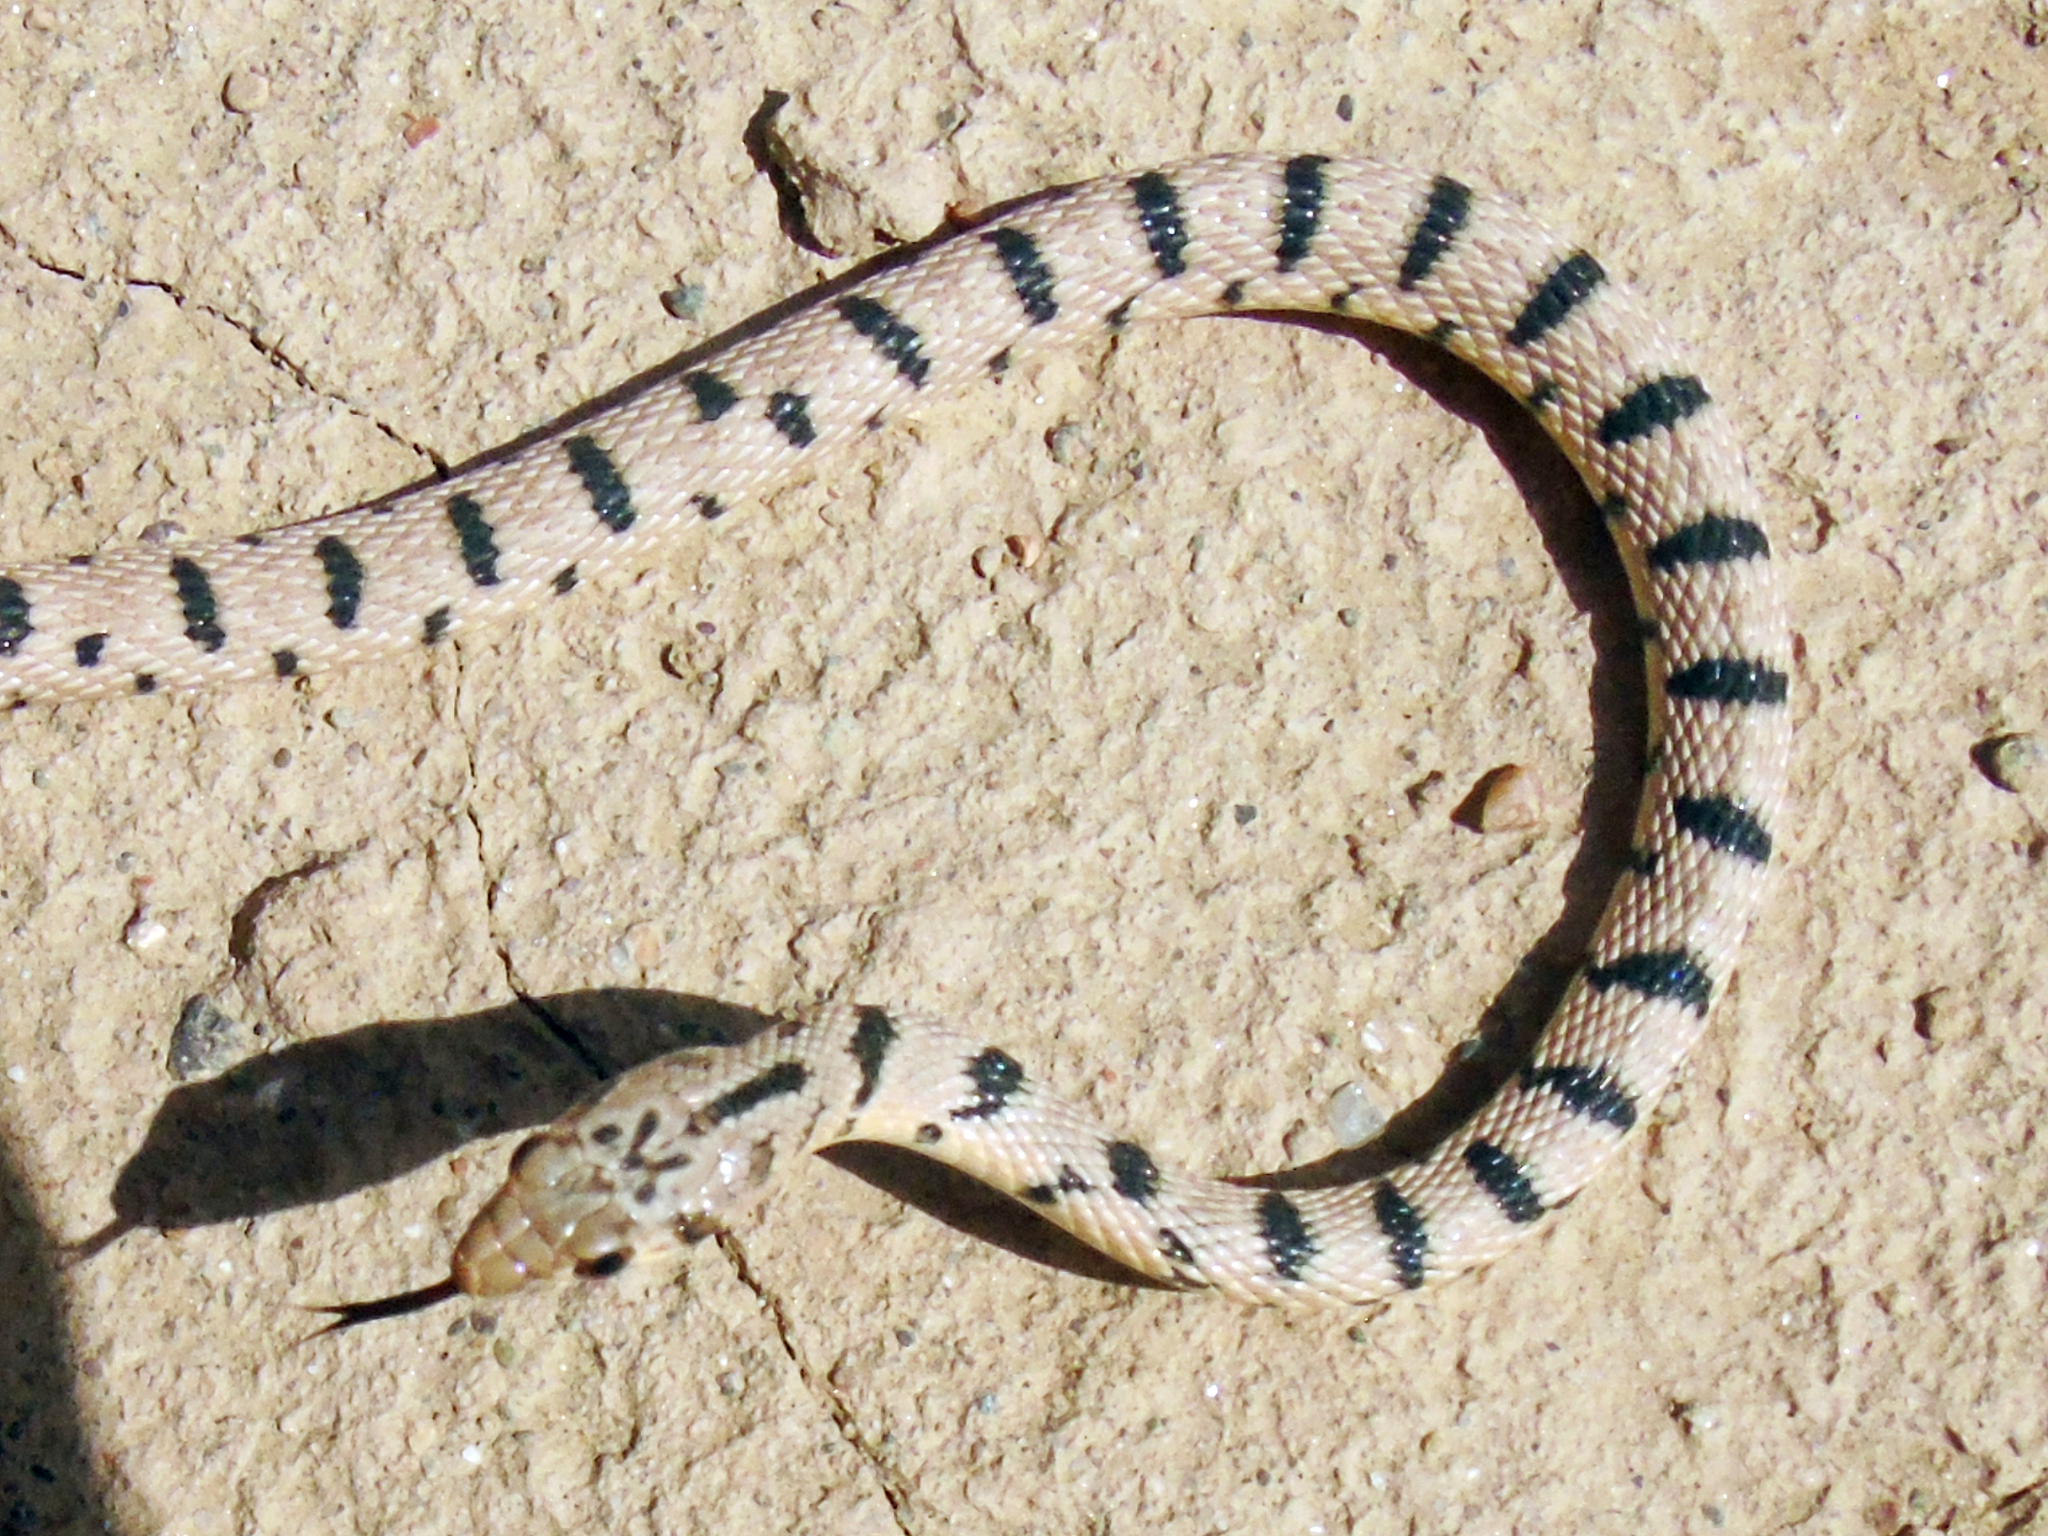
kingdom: Animalia
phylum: Chordata
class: Squamata
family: Colubridae
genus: Platyceps
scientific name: Platyceps karelini
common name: Spotted desert racer
